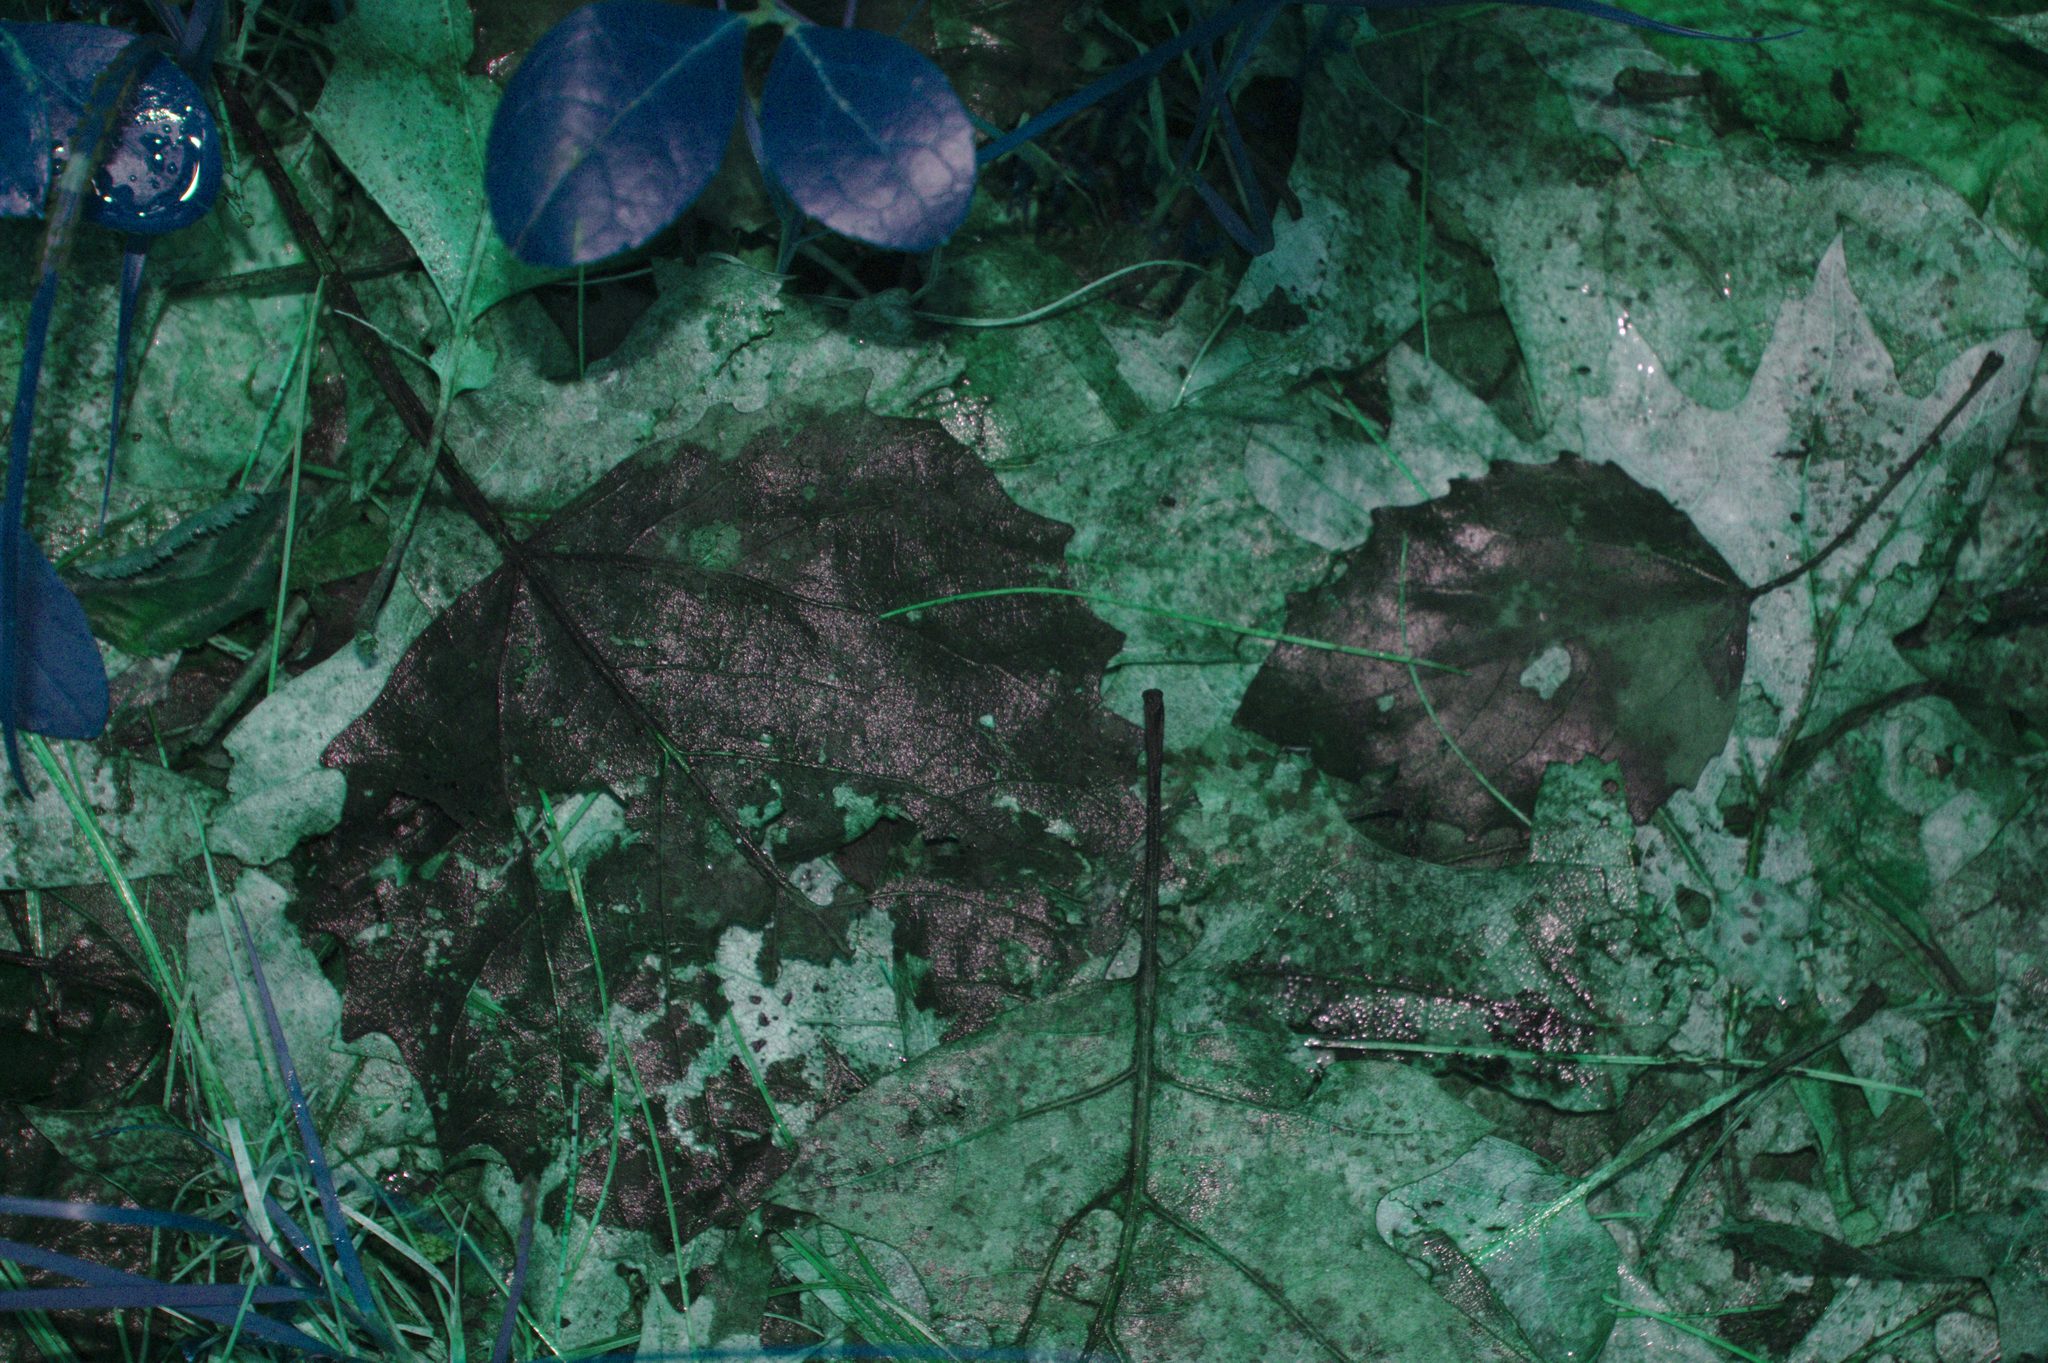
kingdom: Plantae
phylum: Tracheophyta
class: Magnoliopsida
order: Malpighiales
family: Salicaceae
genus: Populus
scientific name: Populus grandidentata
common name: Bigtooth aspen
